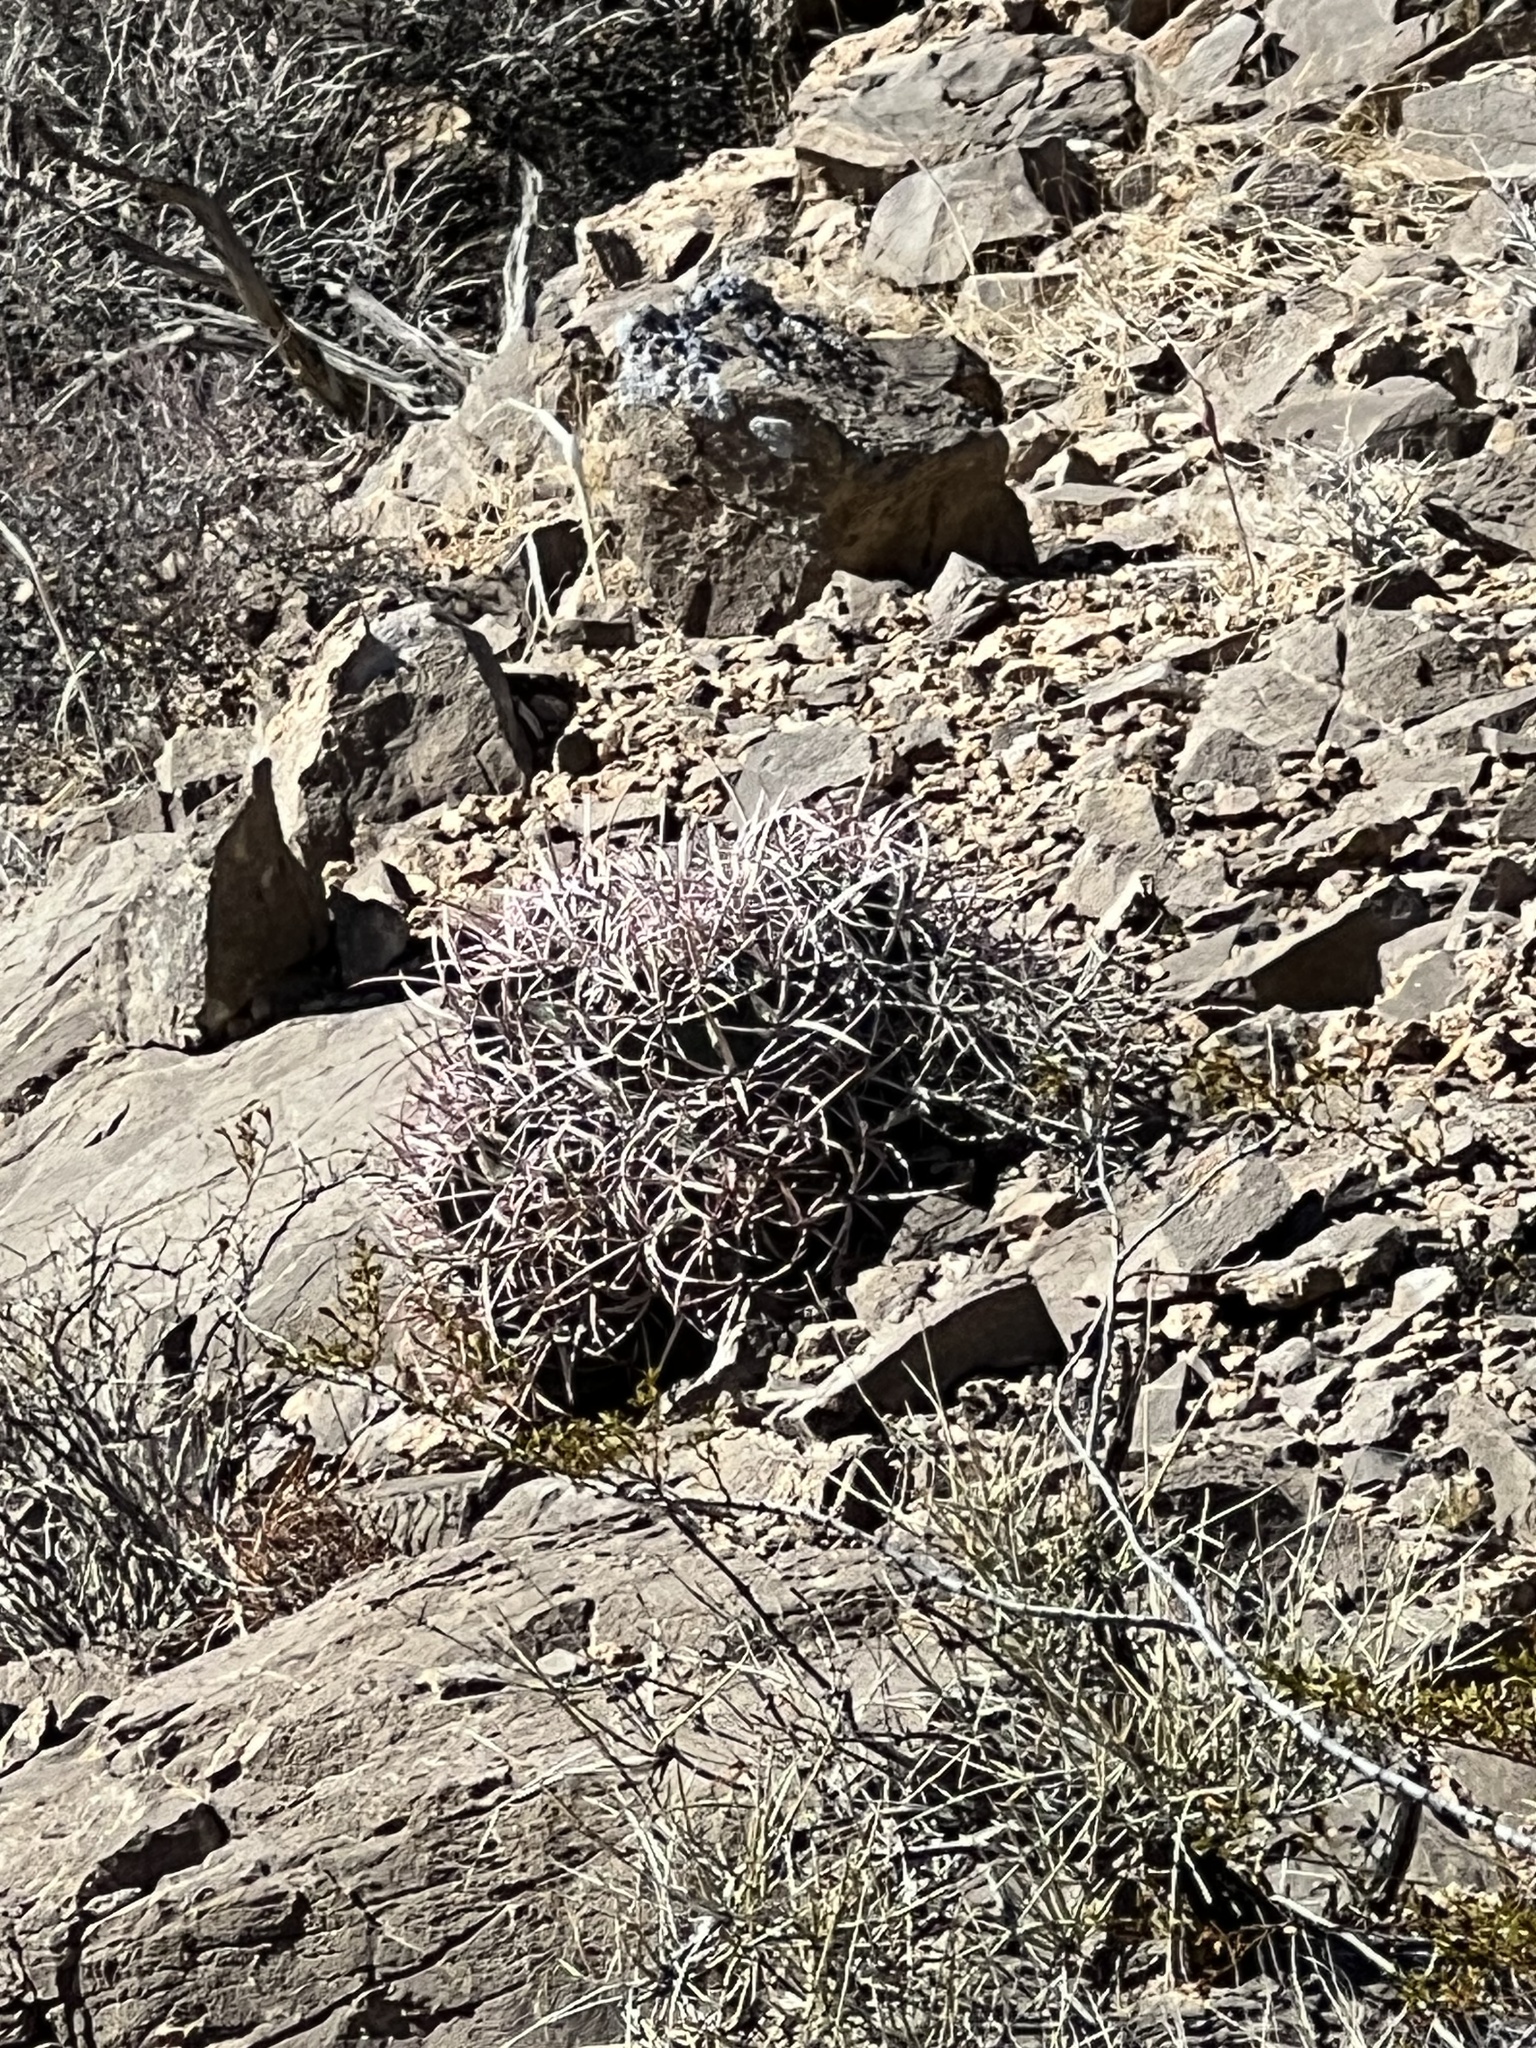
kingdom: Plantae
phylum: Tracheophyta
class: Magnoliopsida
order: Caryophyllales
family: Cactaceae
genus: Echinocactus
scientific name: Echinocactus polycephalus
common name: Cottontop cactus
